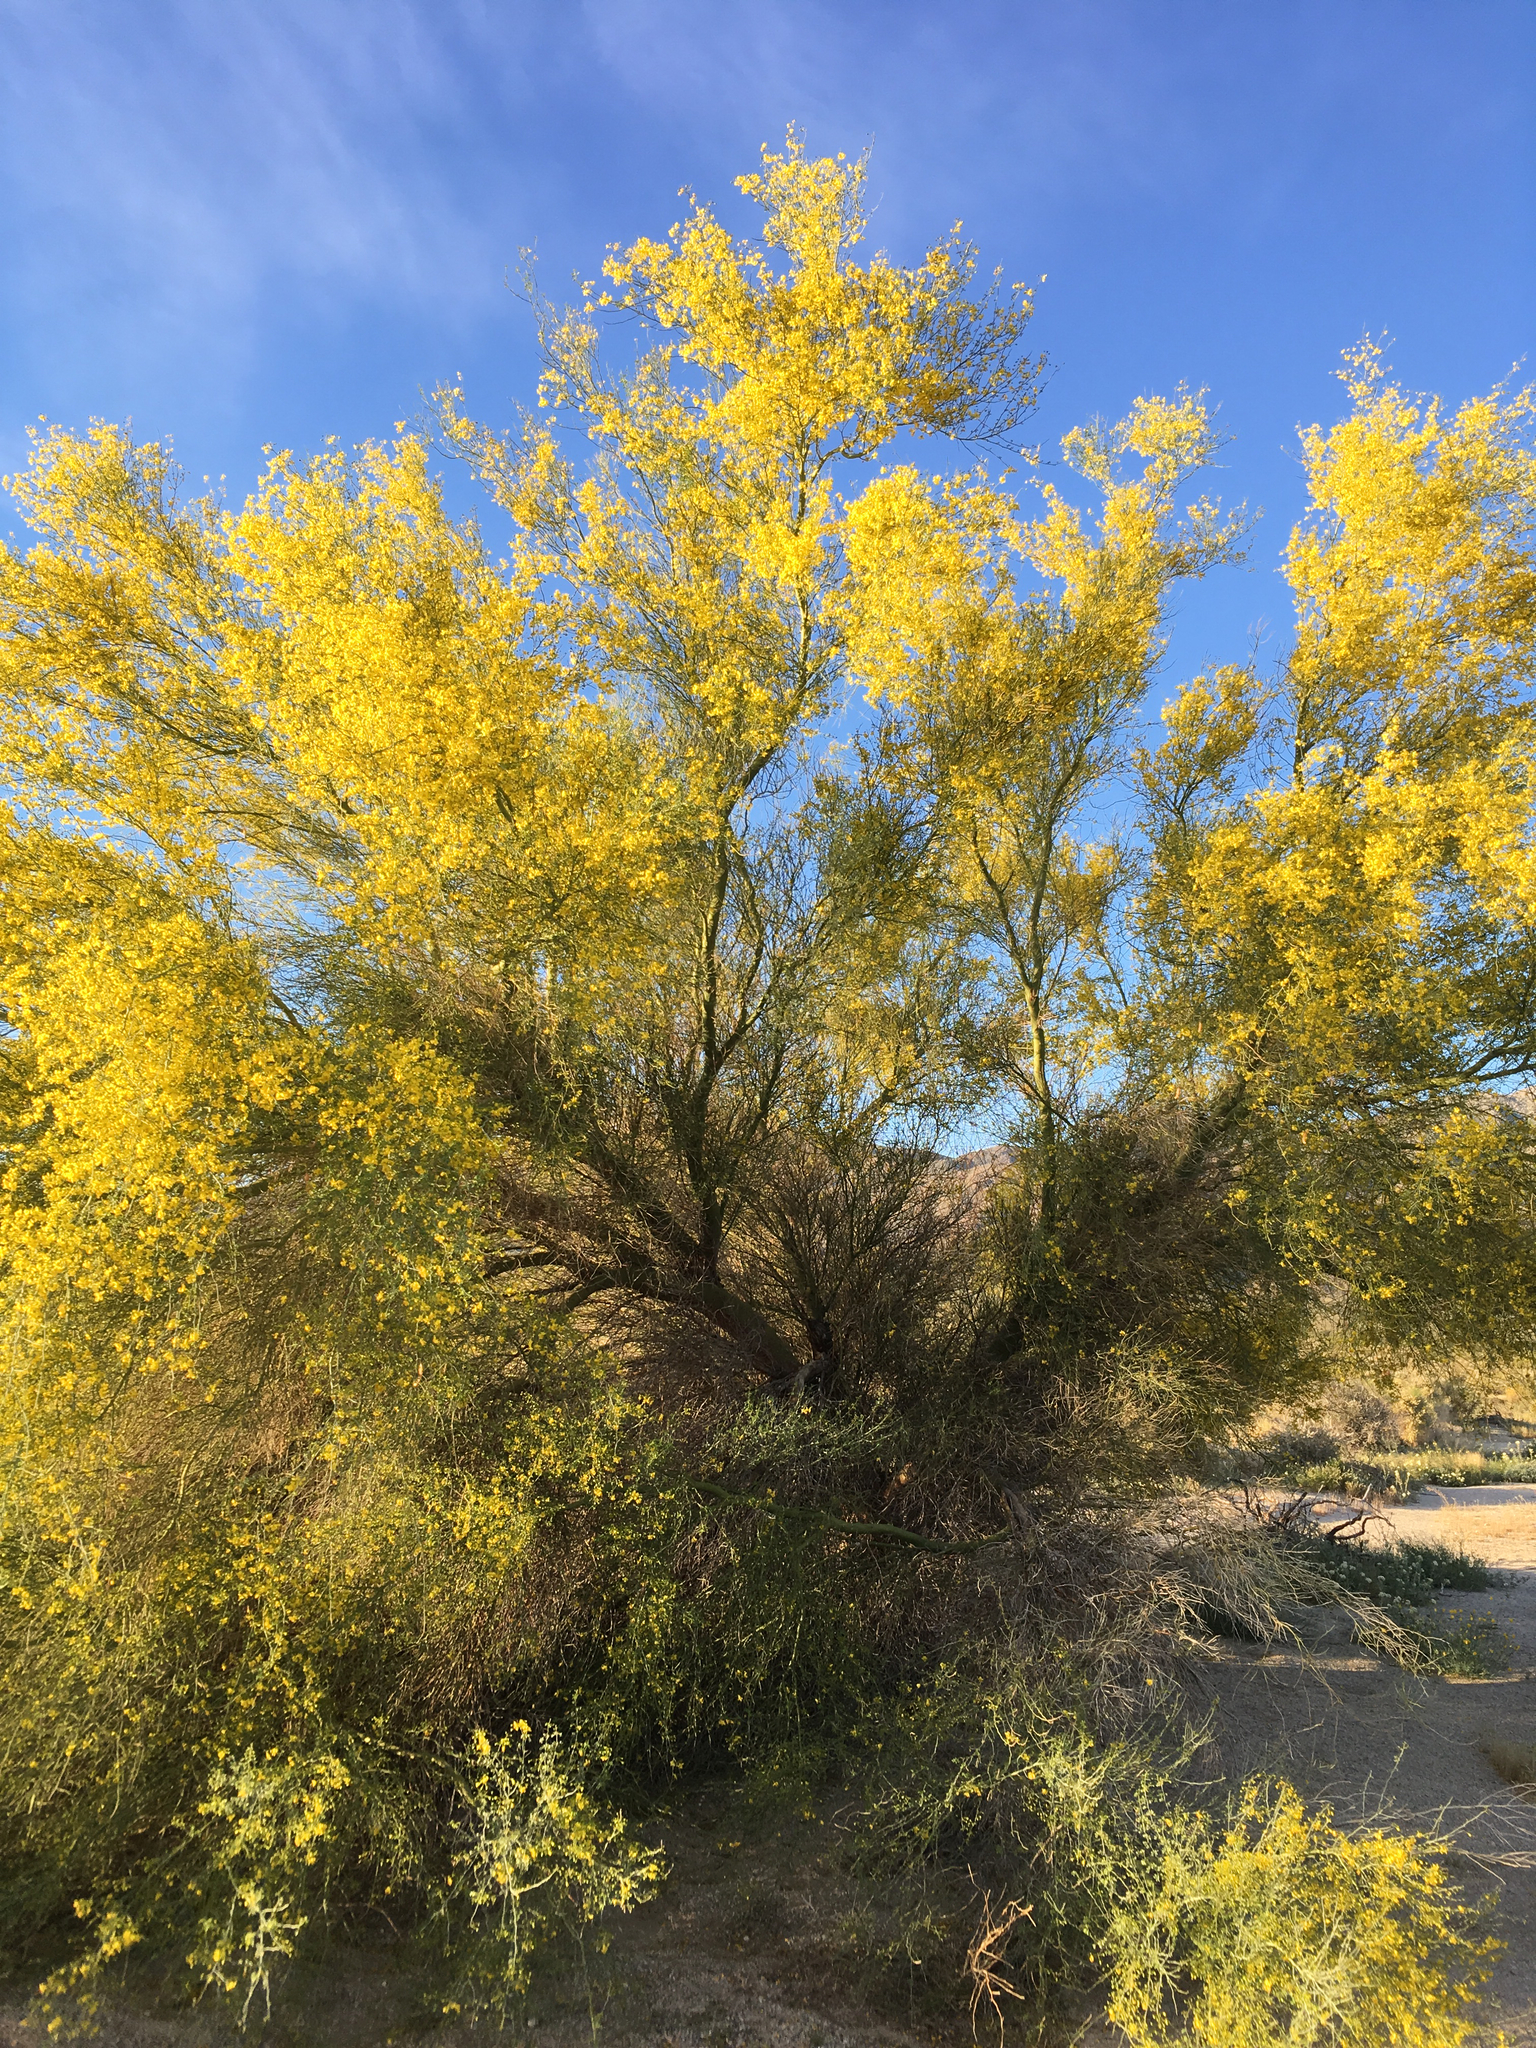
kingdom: Plantae
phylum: Tracheophyta
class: Magnoliopsida
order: Fabales
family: Fabaceae
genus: Parkinsonia
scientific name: Parkinsonia florida
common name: Blue paloverde
